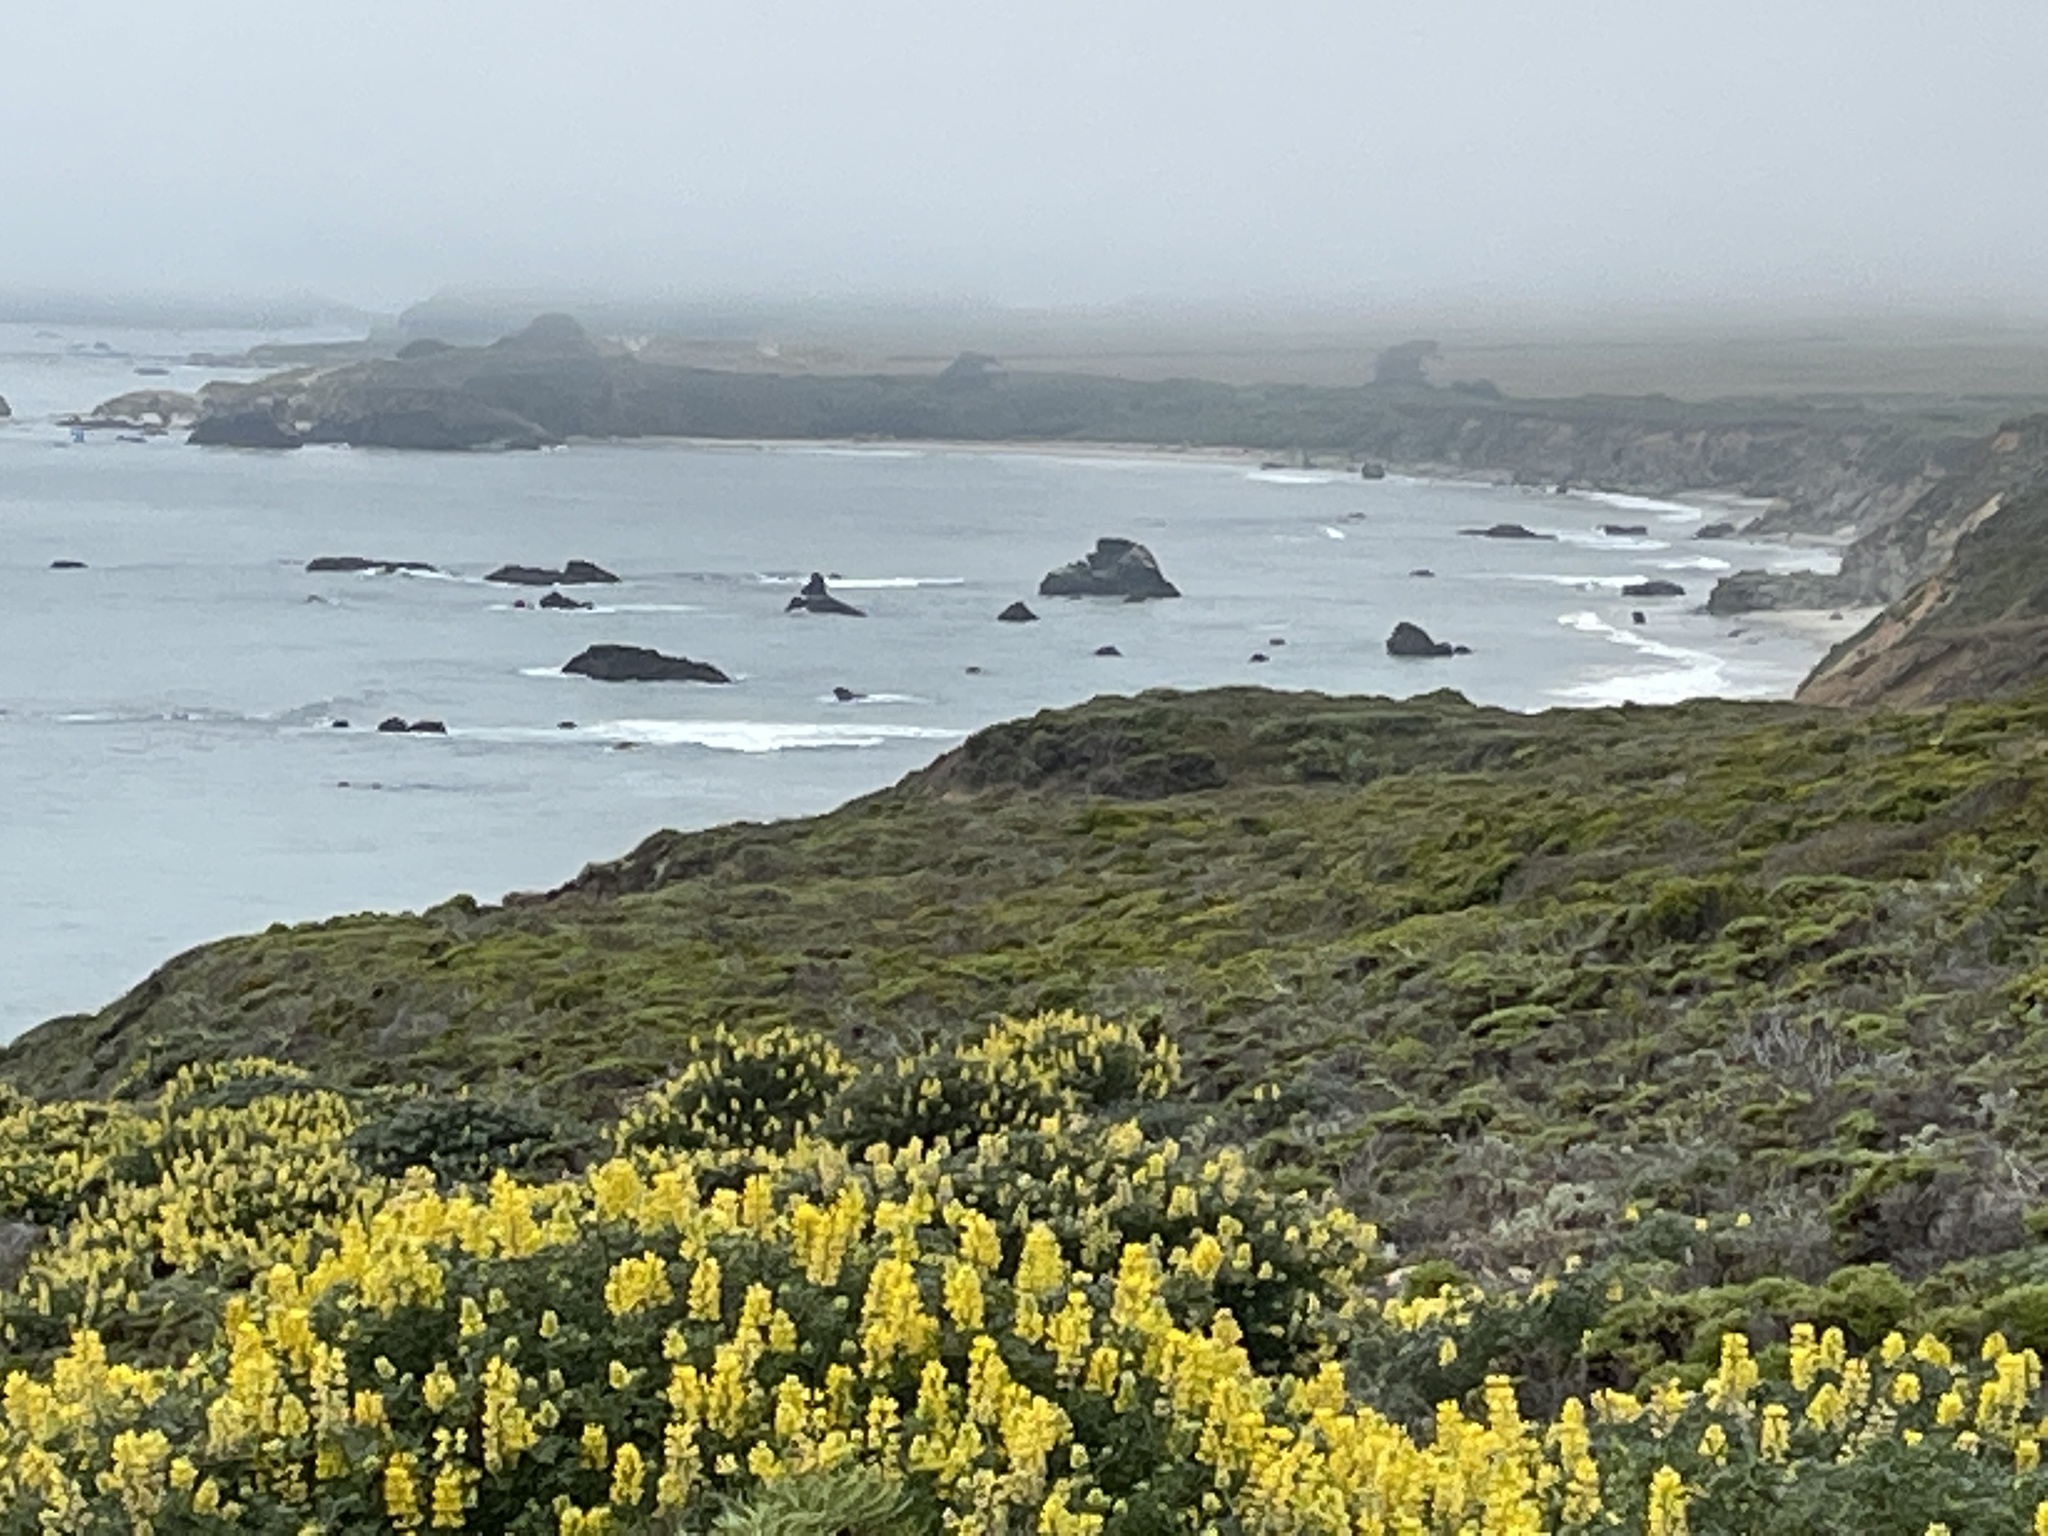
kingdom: Plantae
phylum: Tracheophyta
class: Magnoliopsida
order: Fabales
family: Fabaceae
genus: Lupinus
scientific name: Lupinus arboreus
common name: Yellow bush lupine
